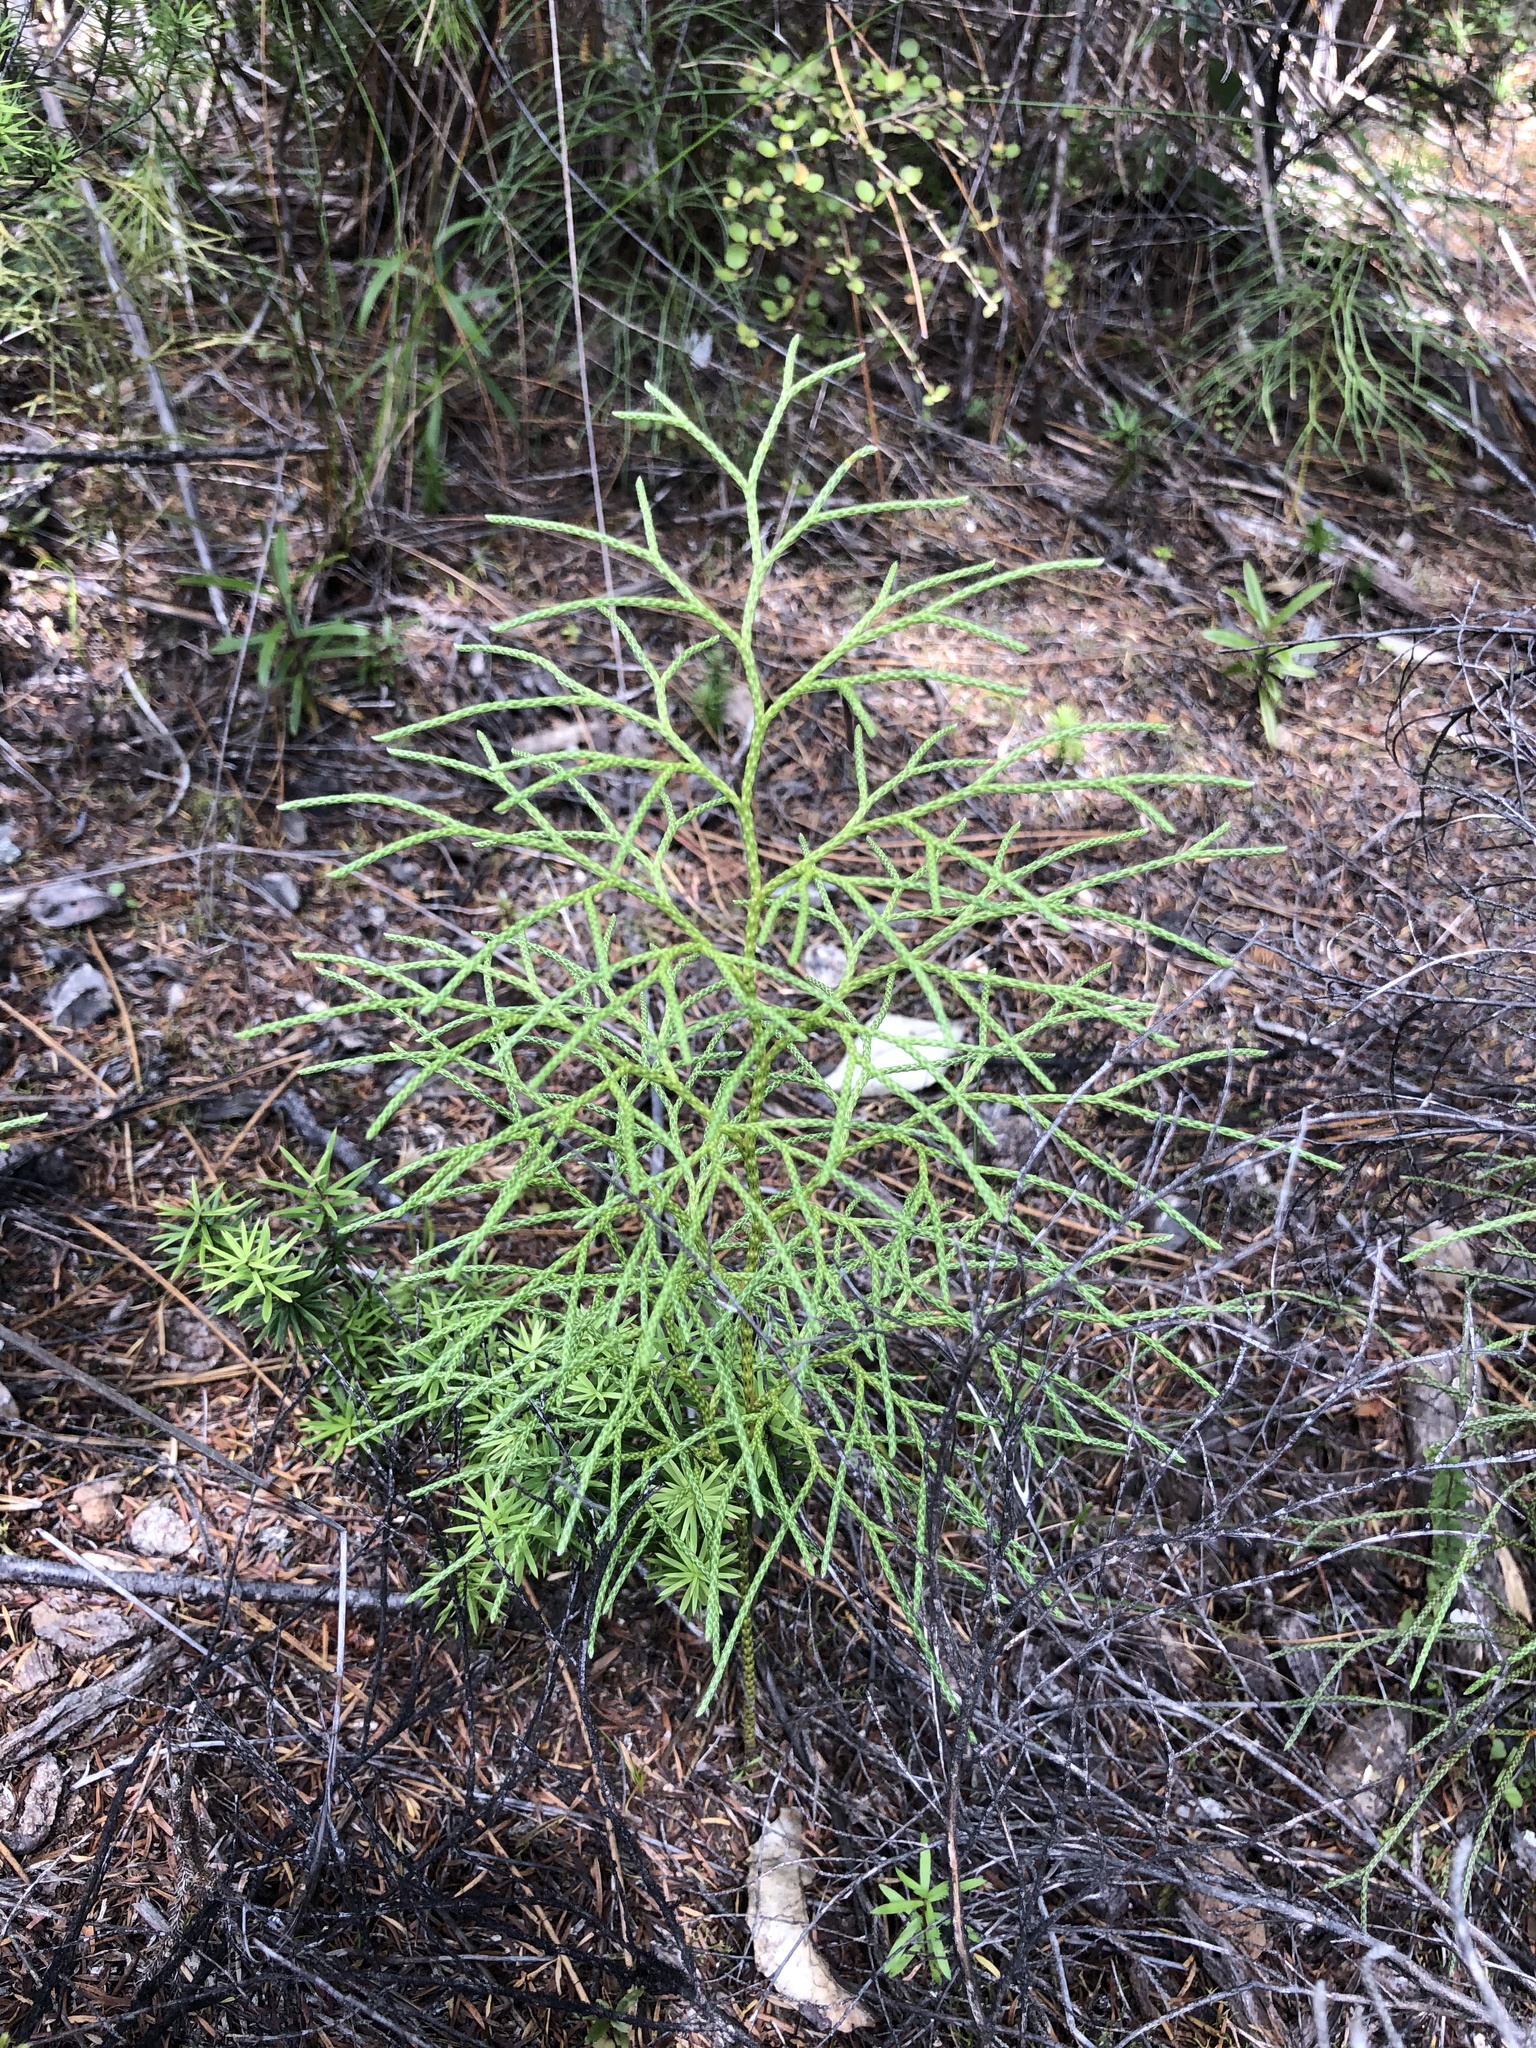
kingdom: Plantae
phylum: Tracheophyta
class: Lycopodiopsida
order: Lycopodiales
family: Lycopodiaceae
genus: Pseudolycopodium
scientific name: Pseudolycopodium densum
